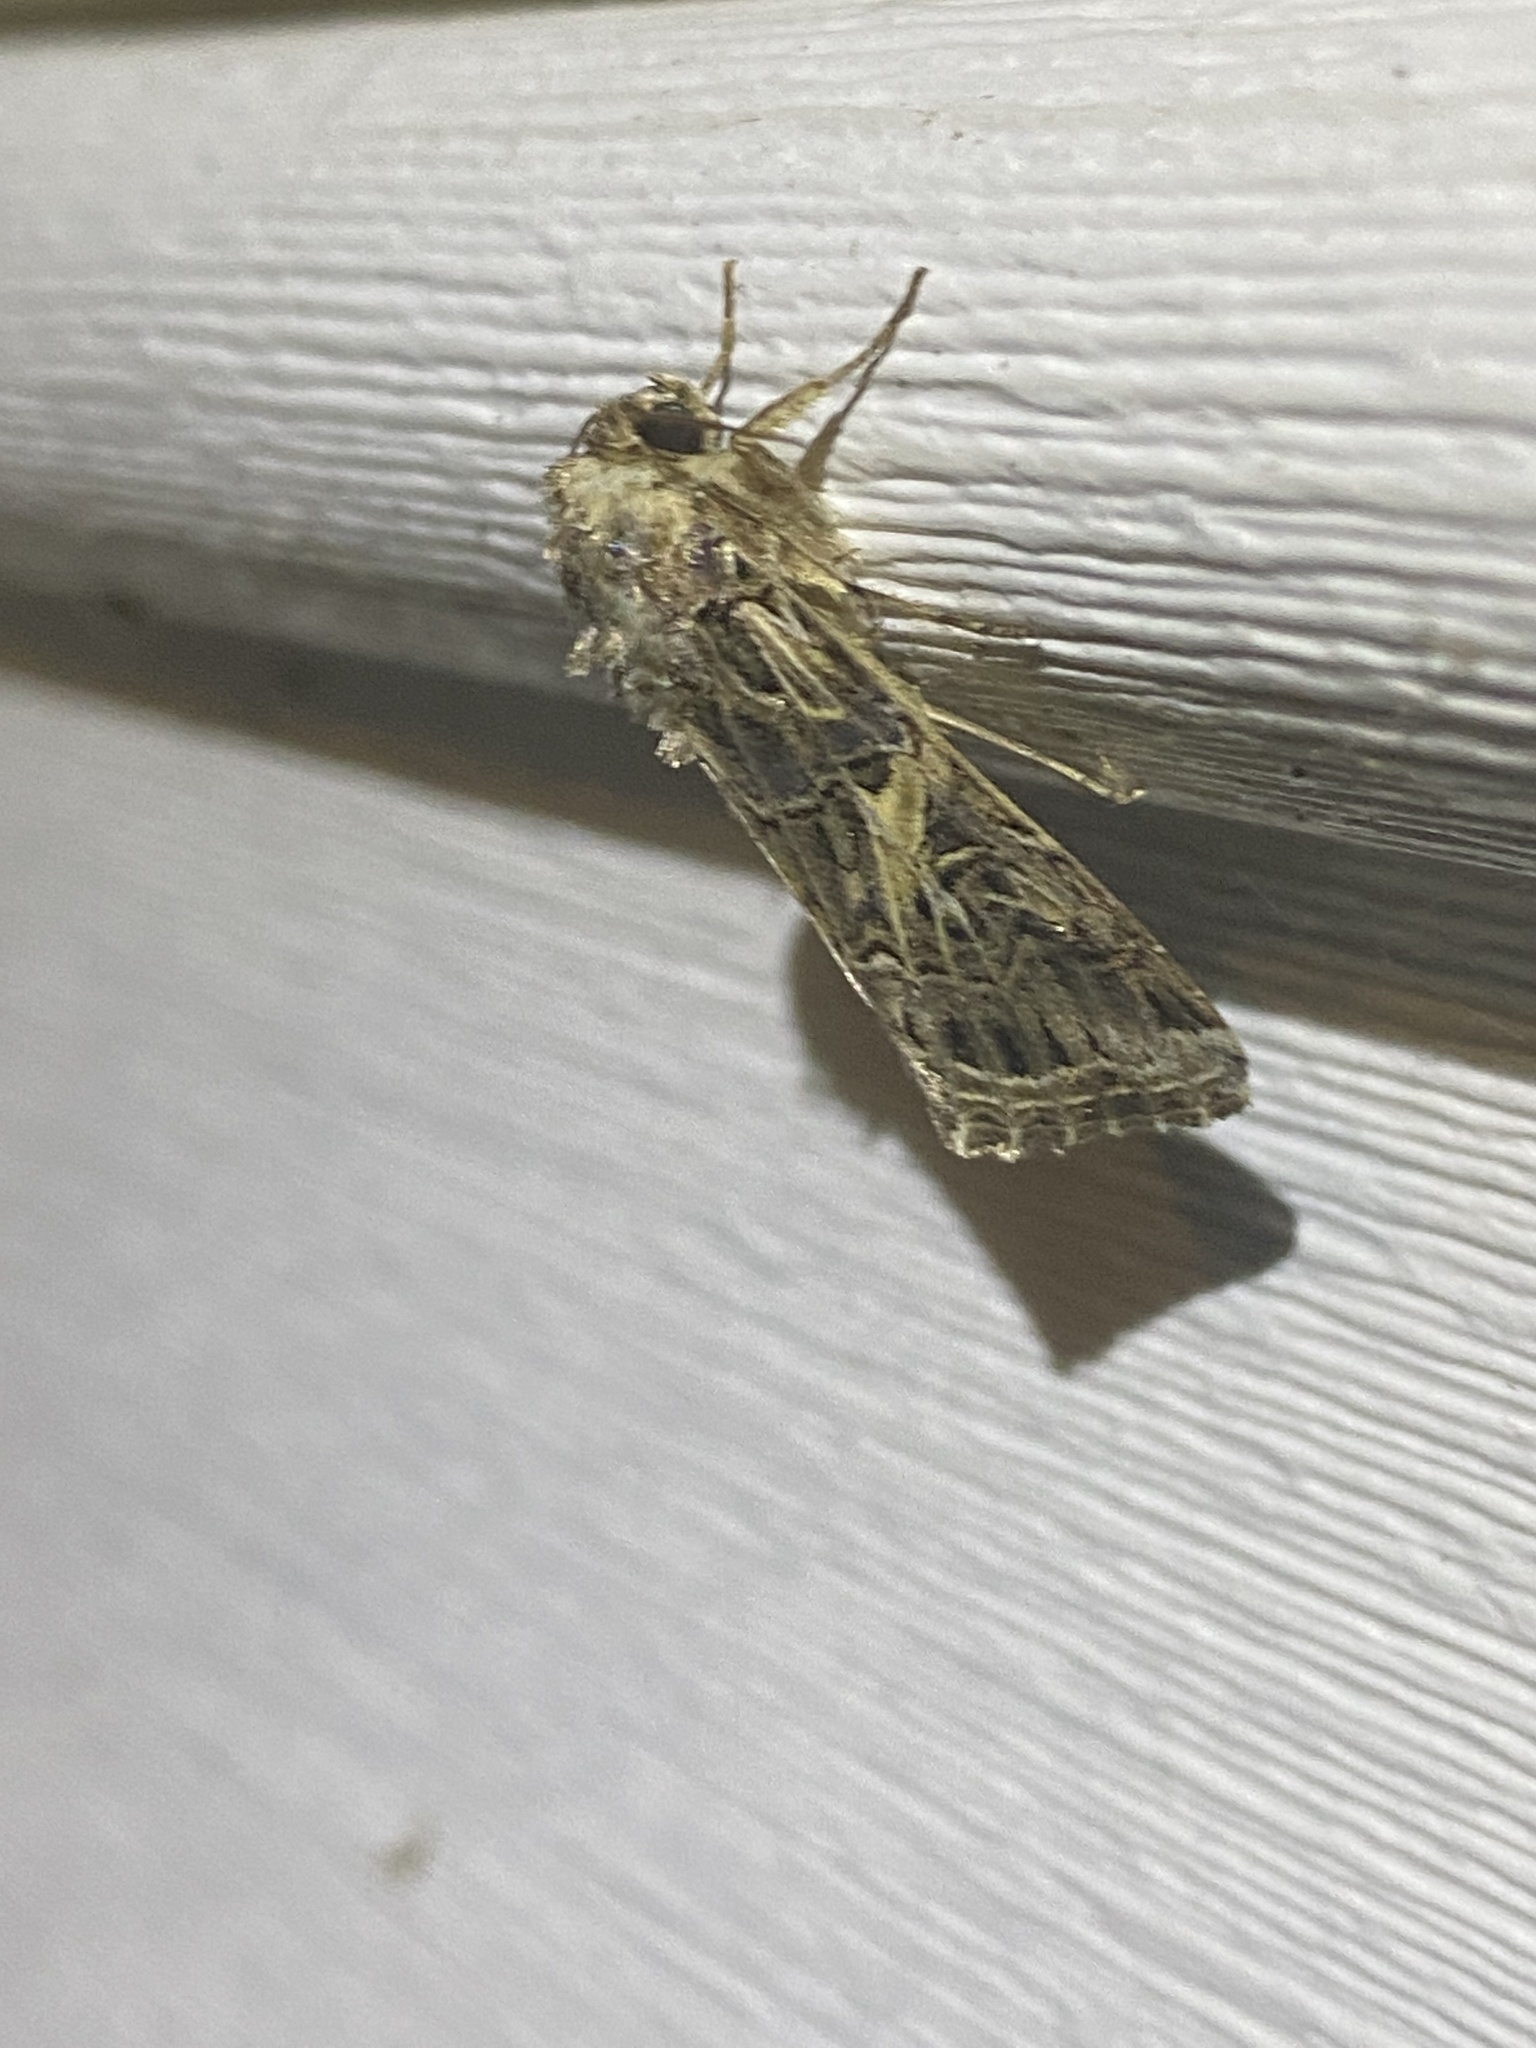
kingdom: Animalia
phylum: Arthropoda
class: Insecta
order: Lepidoptera
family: Noctuidae
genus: Spodoptera
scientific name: Spodoptera ornithogalli
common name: Yellow-striped armyworm
